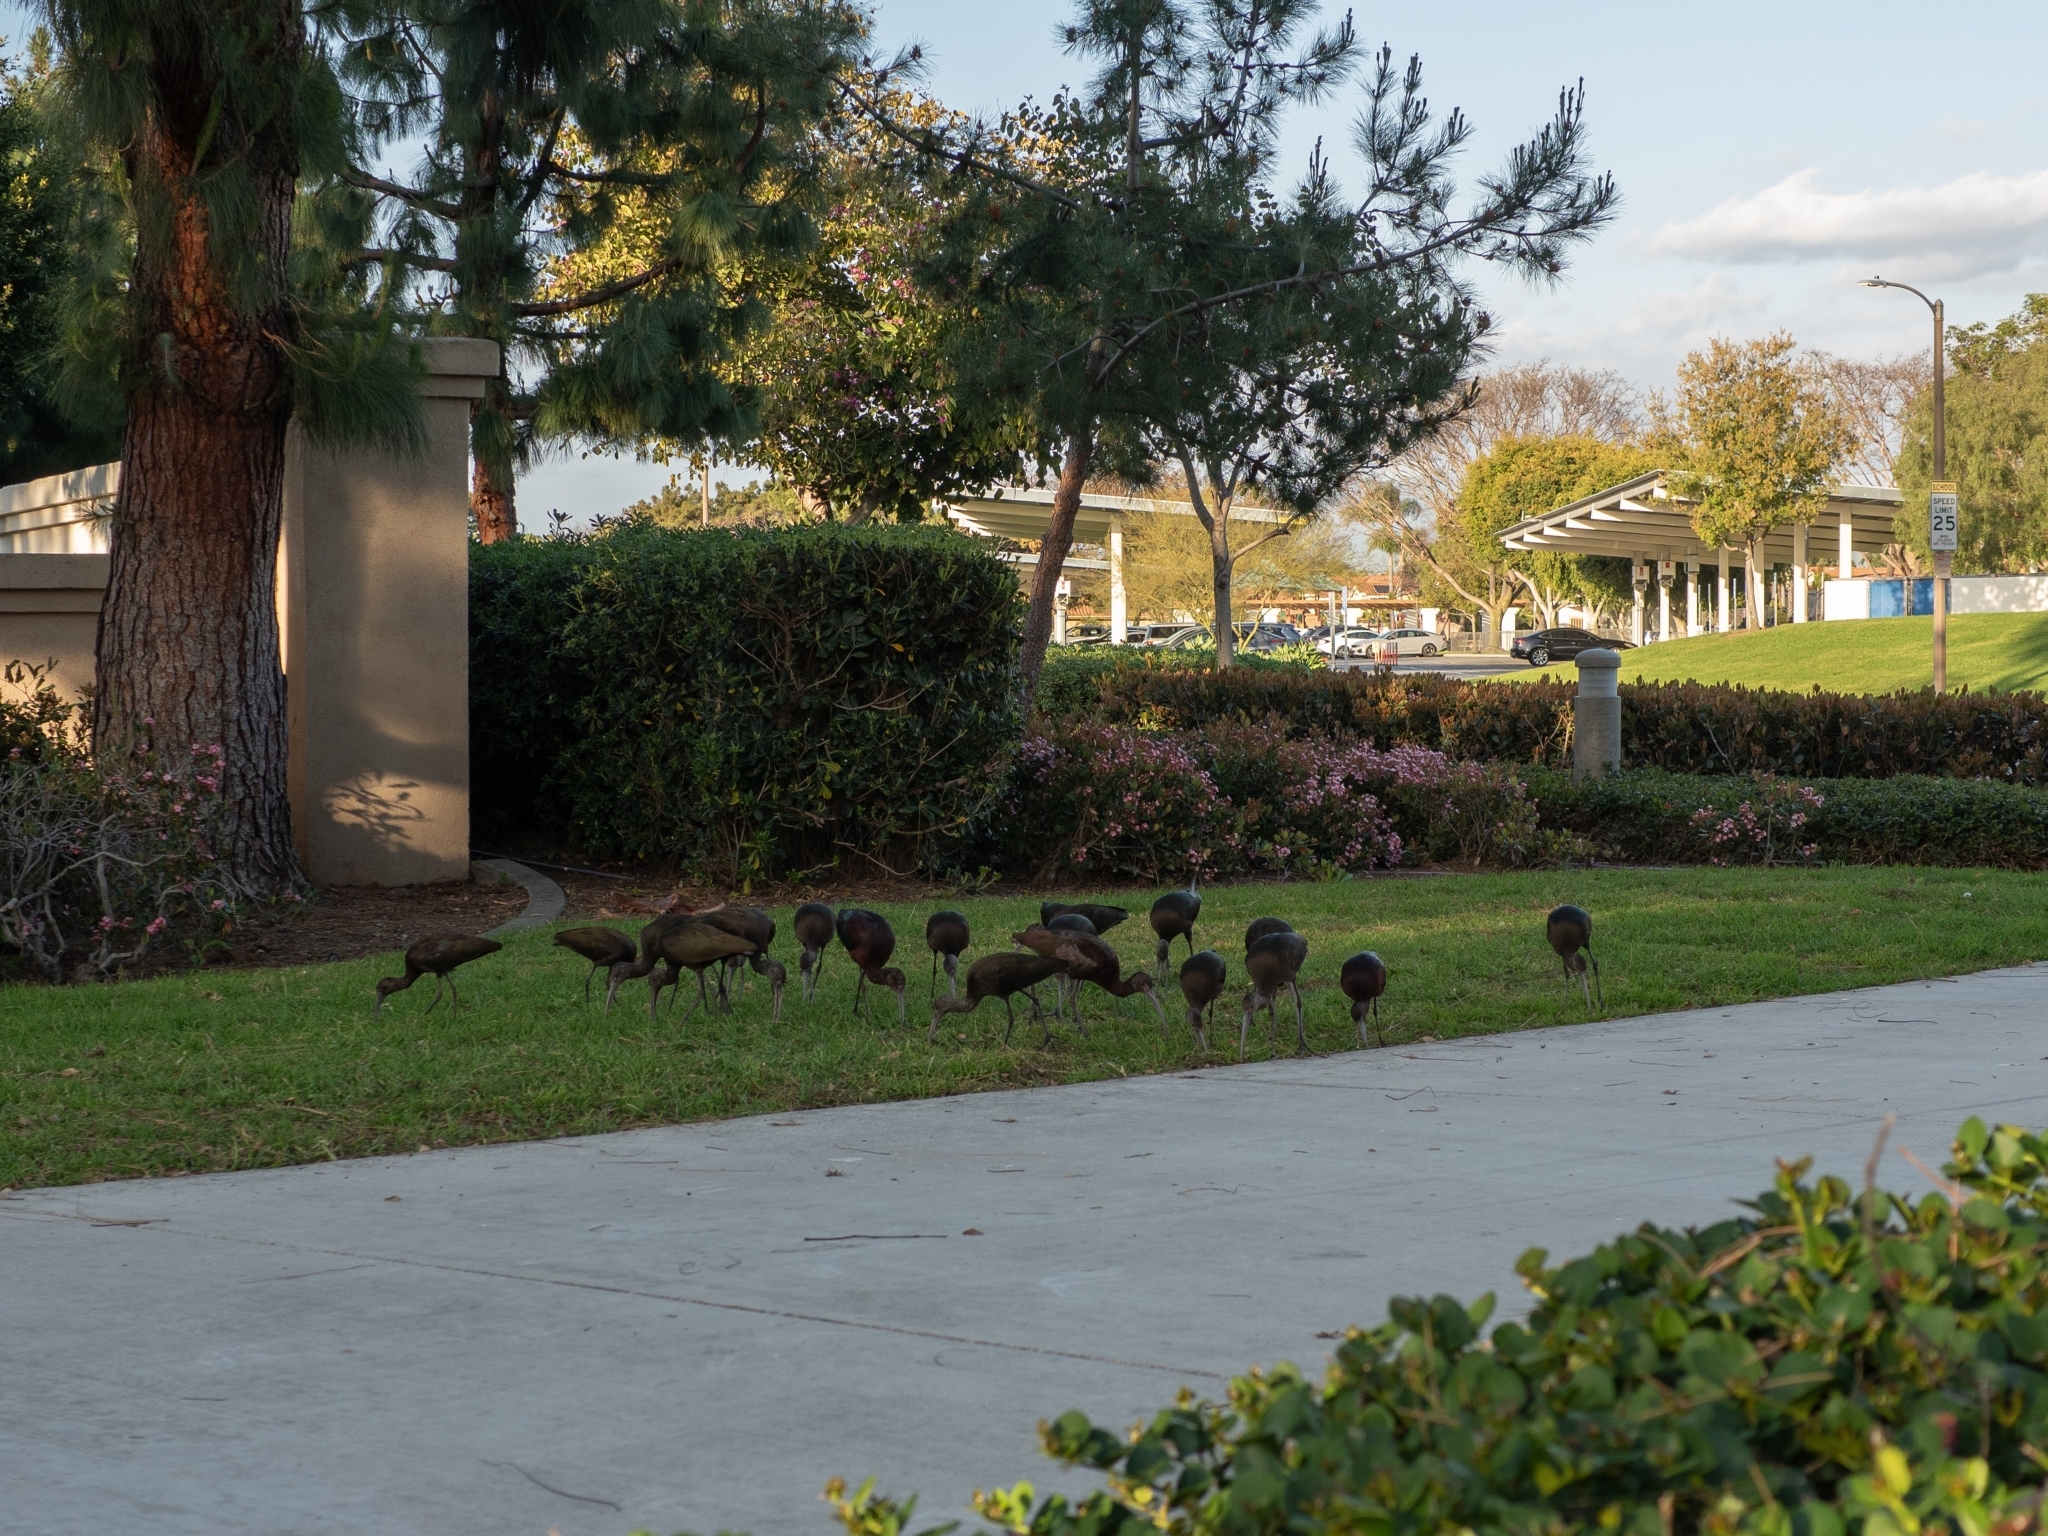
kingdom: Animalia
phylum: Chordata
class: Aves
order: Pelecaniformes
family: Threskiornithidae
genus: Plegadis
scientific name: Plegadis chihi
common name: White-faced ibis
